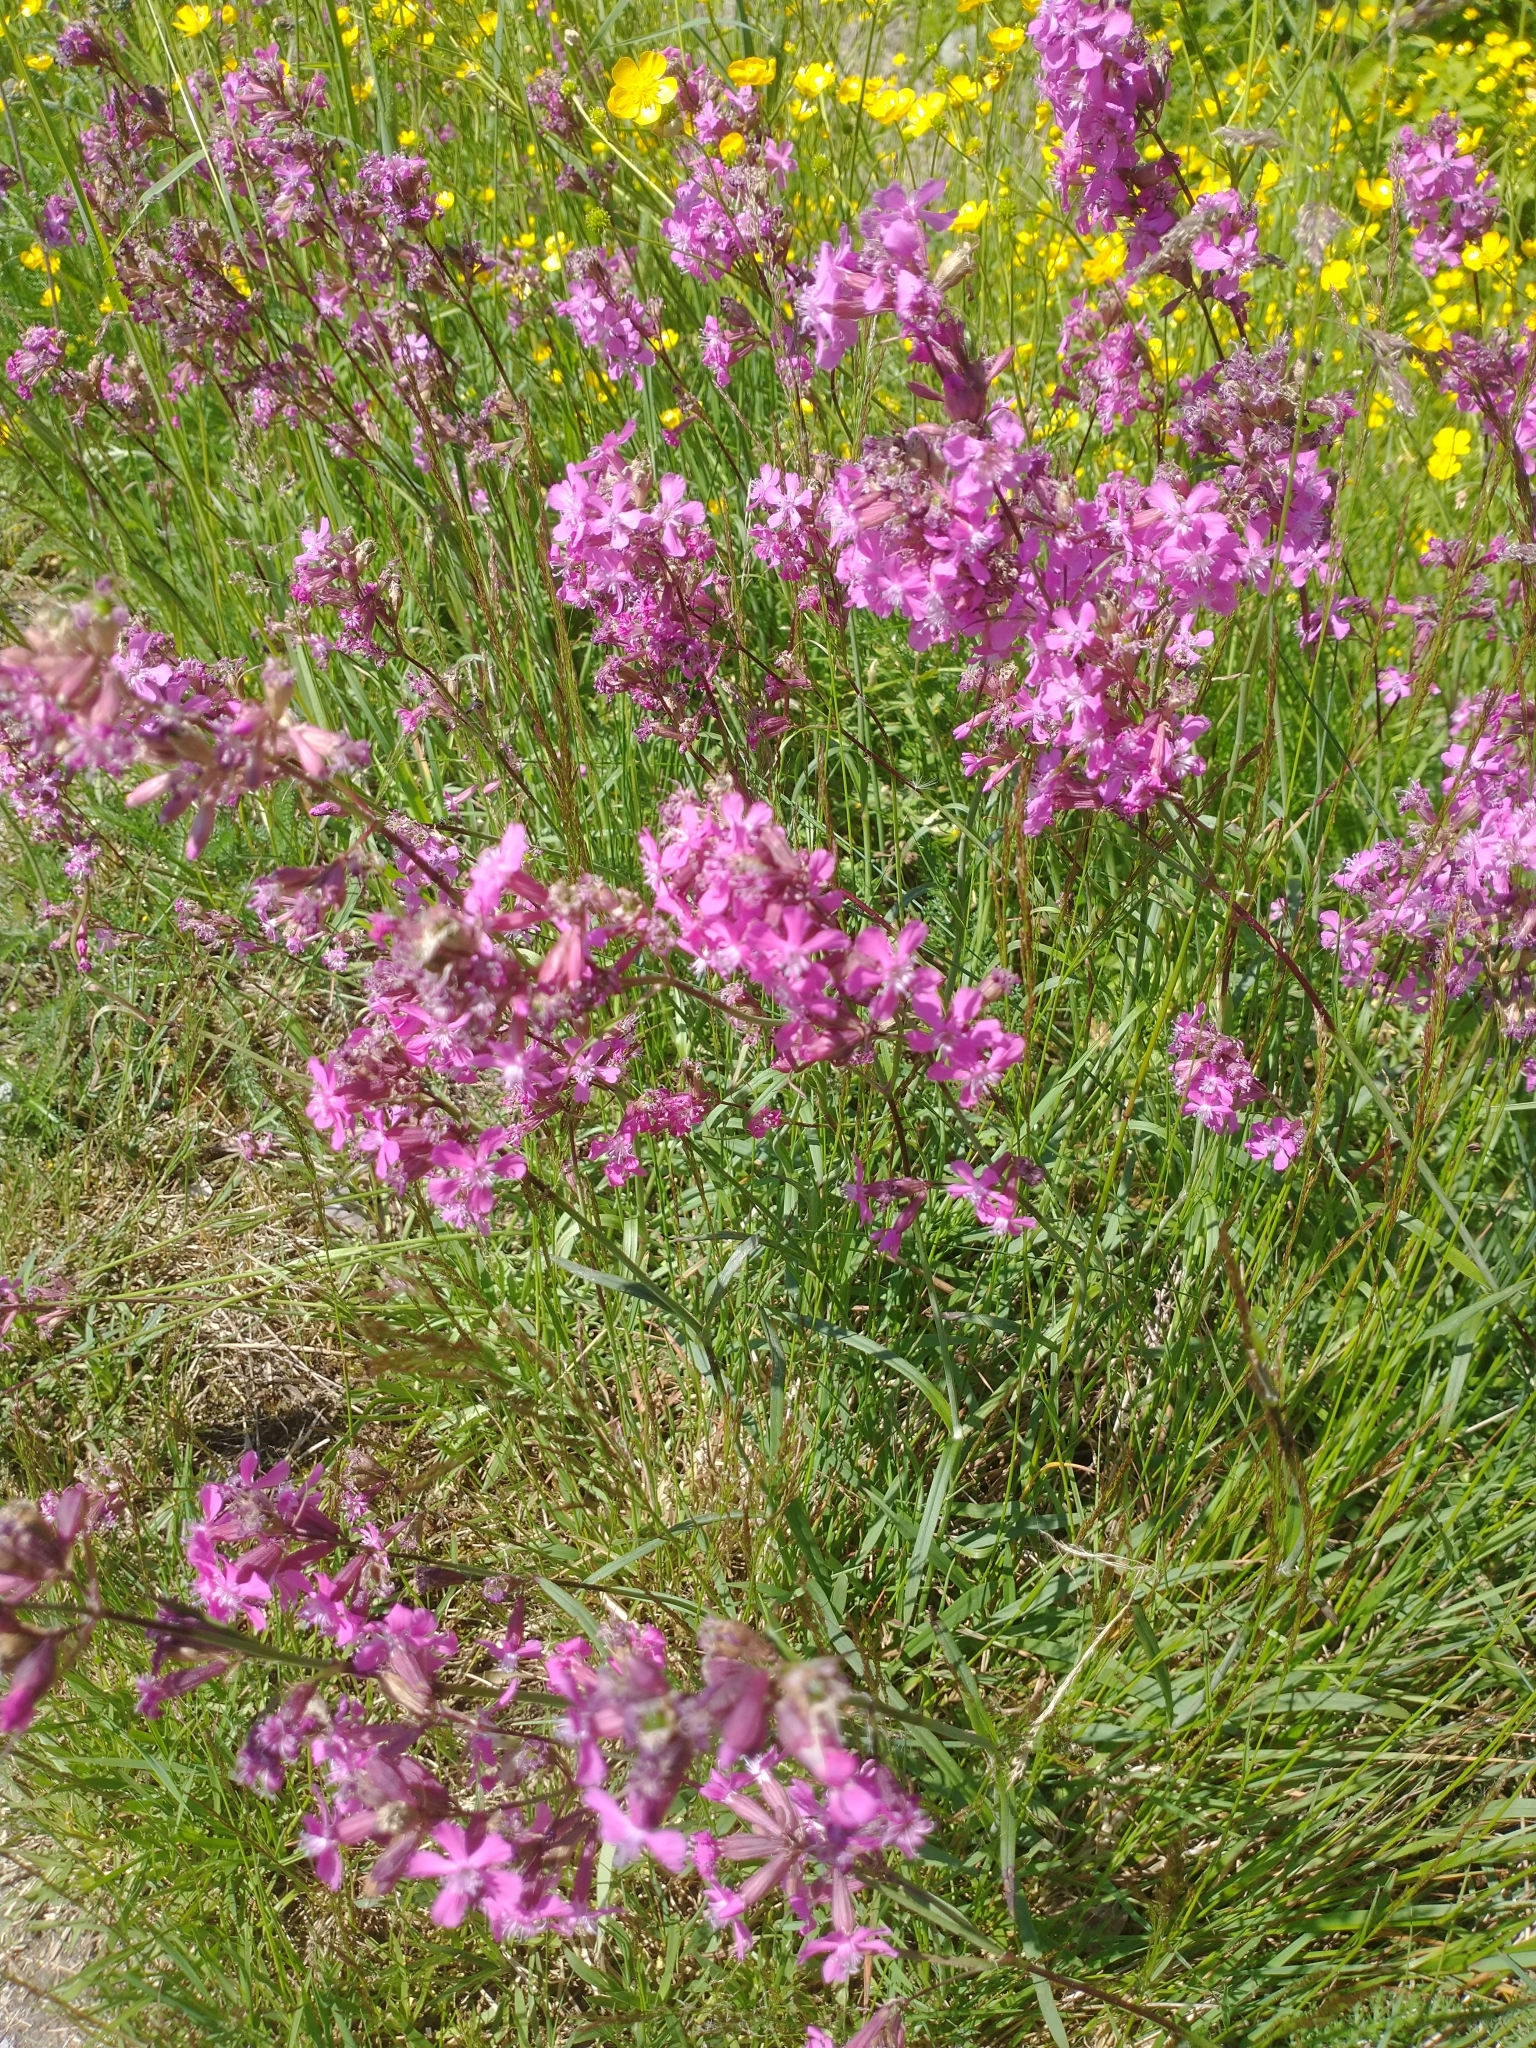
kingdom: Plantae
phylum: Tracheophyta
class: Magnoliopsida
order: Caryophyllales
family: Caryophyllaceae
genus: Viscaria
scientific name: Viscaria vulgaris
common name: Clammy campion
